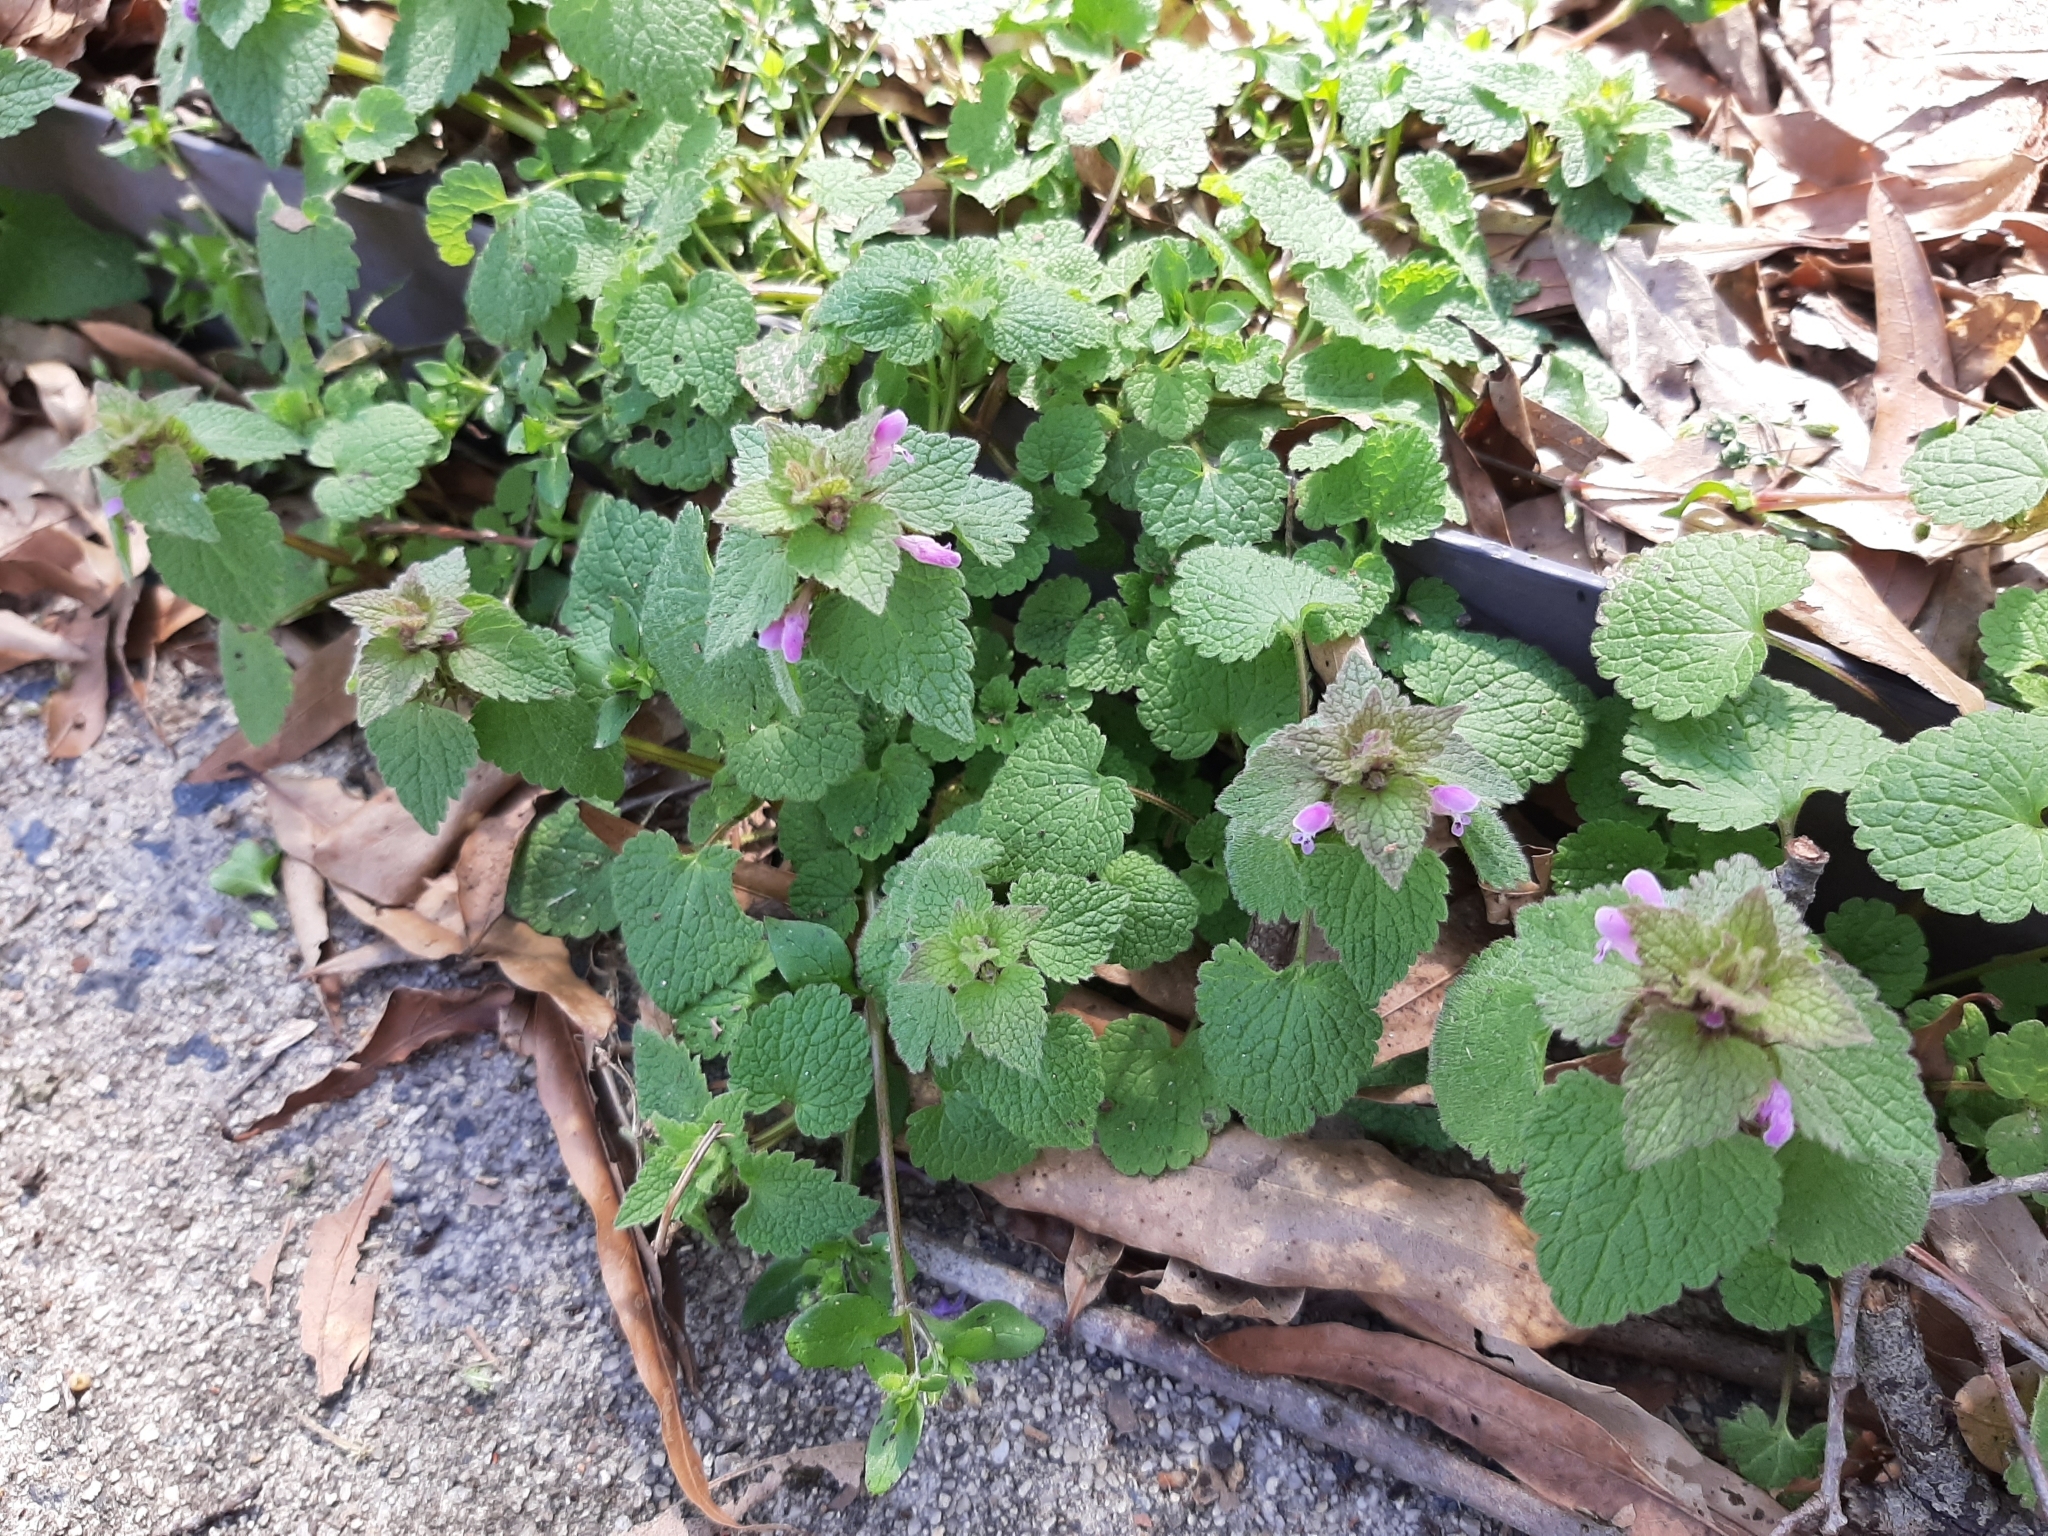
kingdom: Plantae
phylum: Tracheophyta
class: Magnoliopsida
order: Lamiales
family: Lamiaceae
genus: Lamium
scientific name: Lamium purpureum
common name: Red dead-nettle
